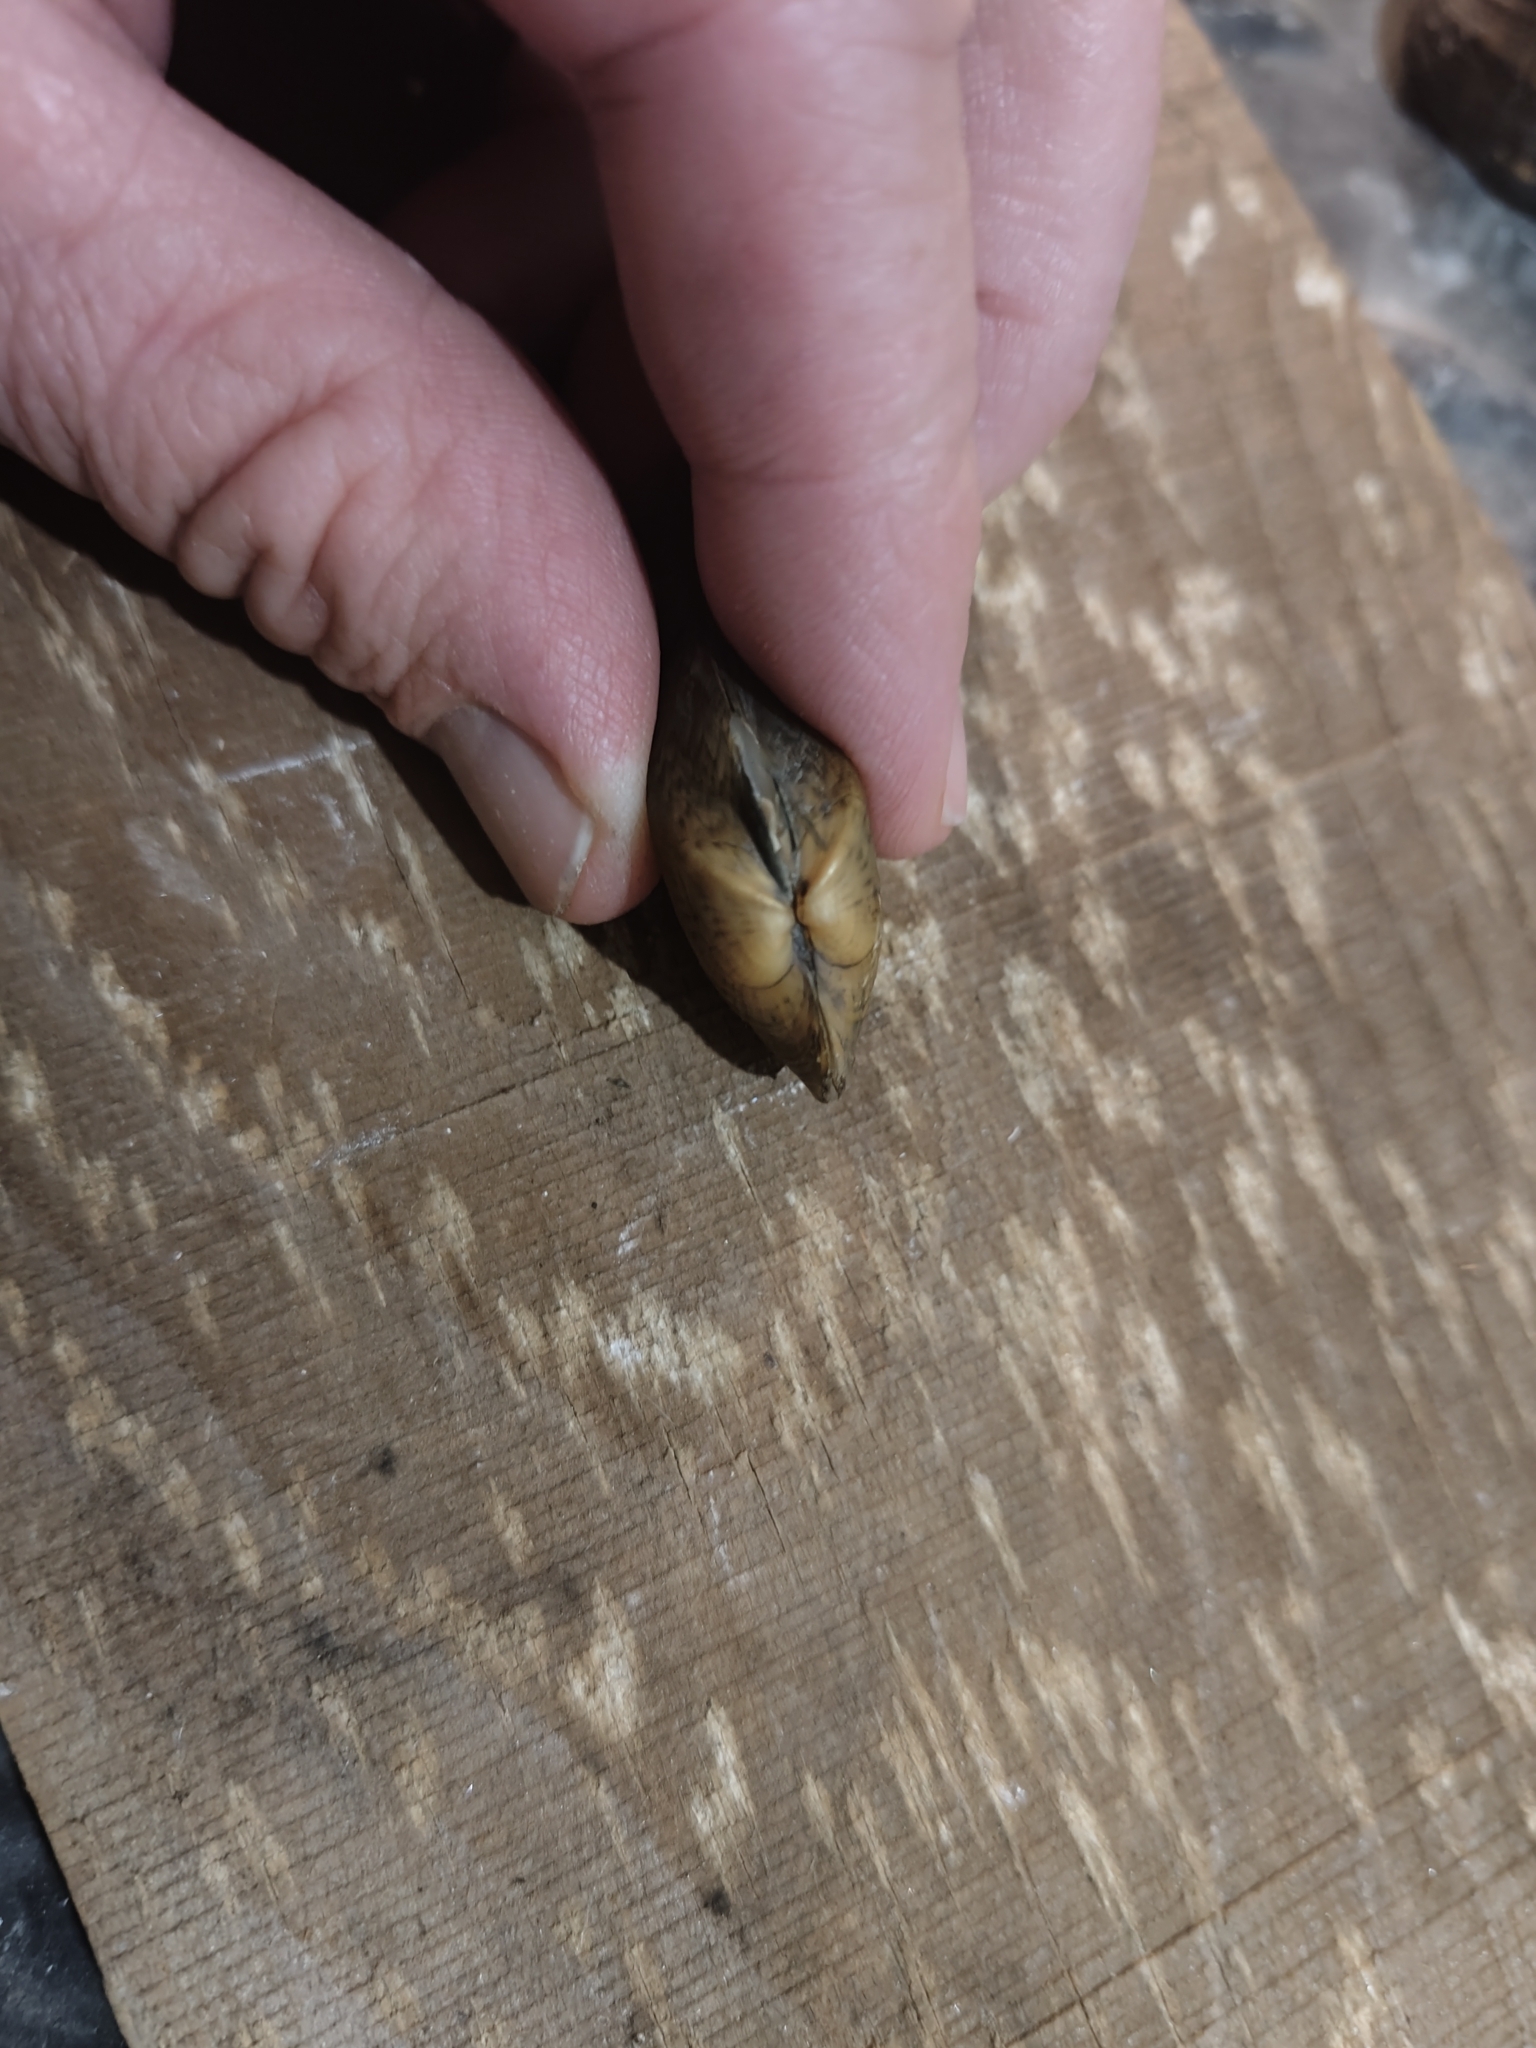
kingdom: Animalia
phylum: Mollusca
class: Bivalvia
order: Unionida
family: Unionidae
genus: Truncilla
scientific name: Truncilla truncata
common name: Deertoe
